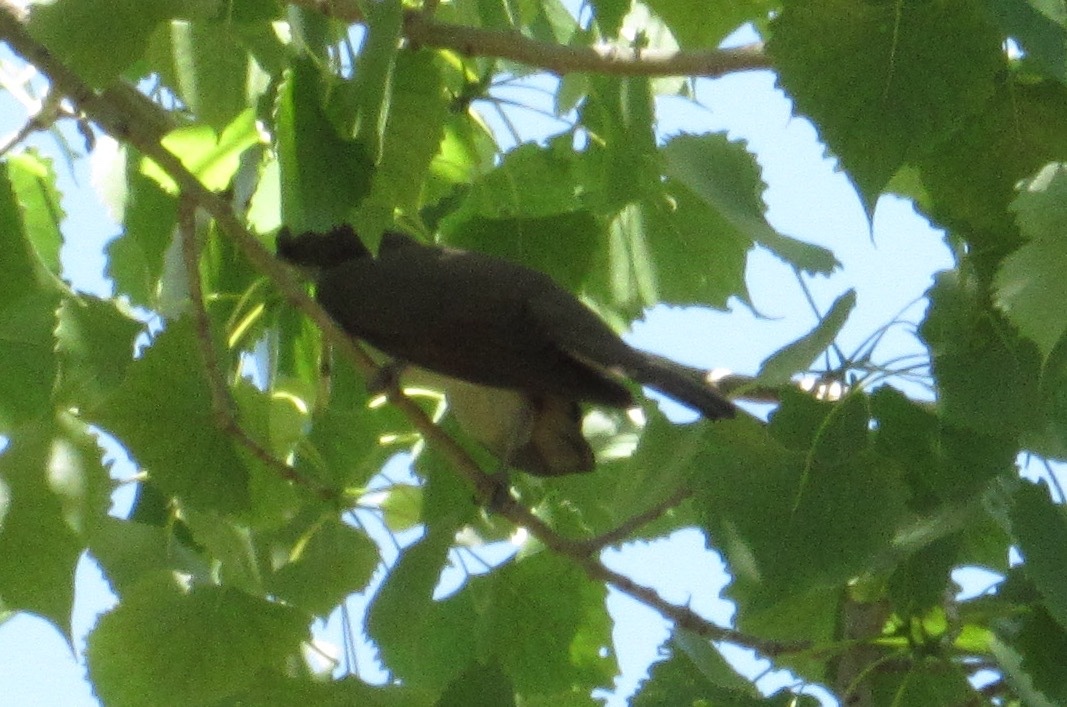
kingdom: Animalia
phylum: Chordata
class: Aves
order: Cuculiformes
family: Cuculidae
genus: Coccyzus
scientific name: Coccyzus americanus
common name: Yellow-billed cuckoo
